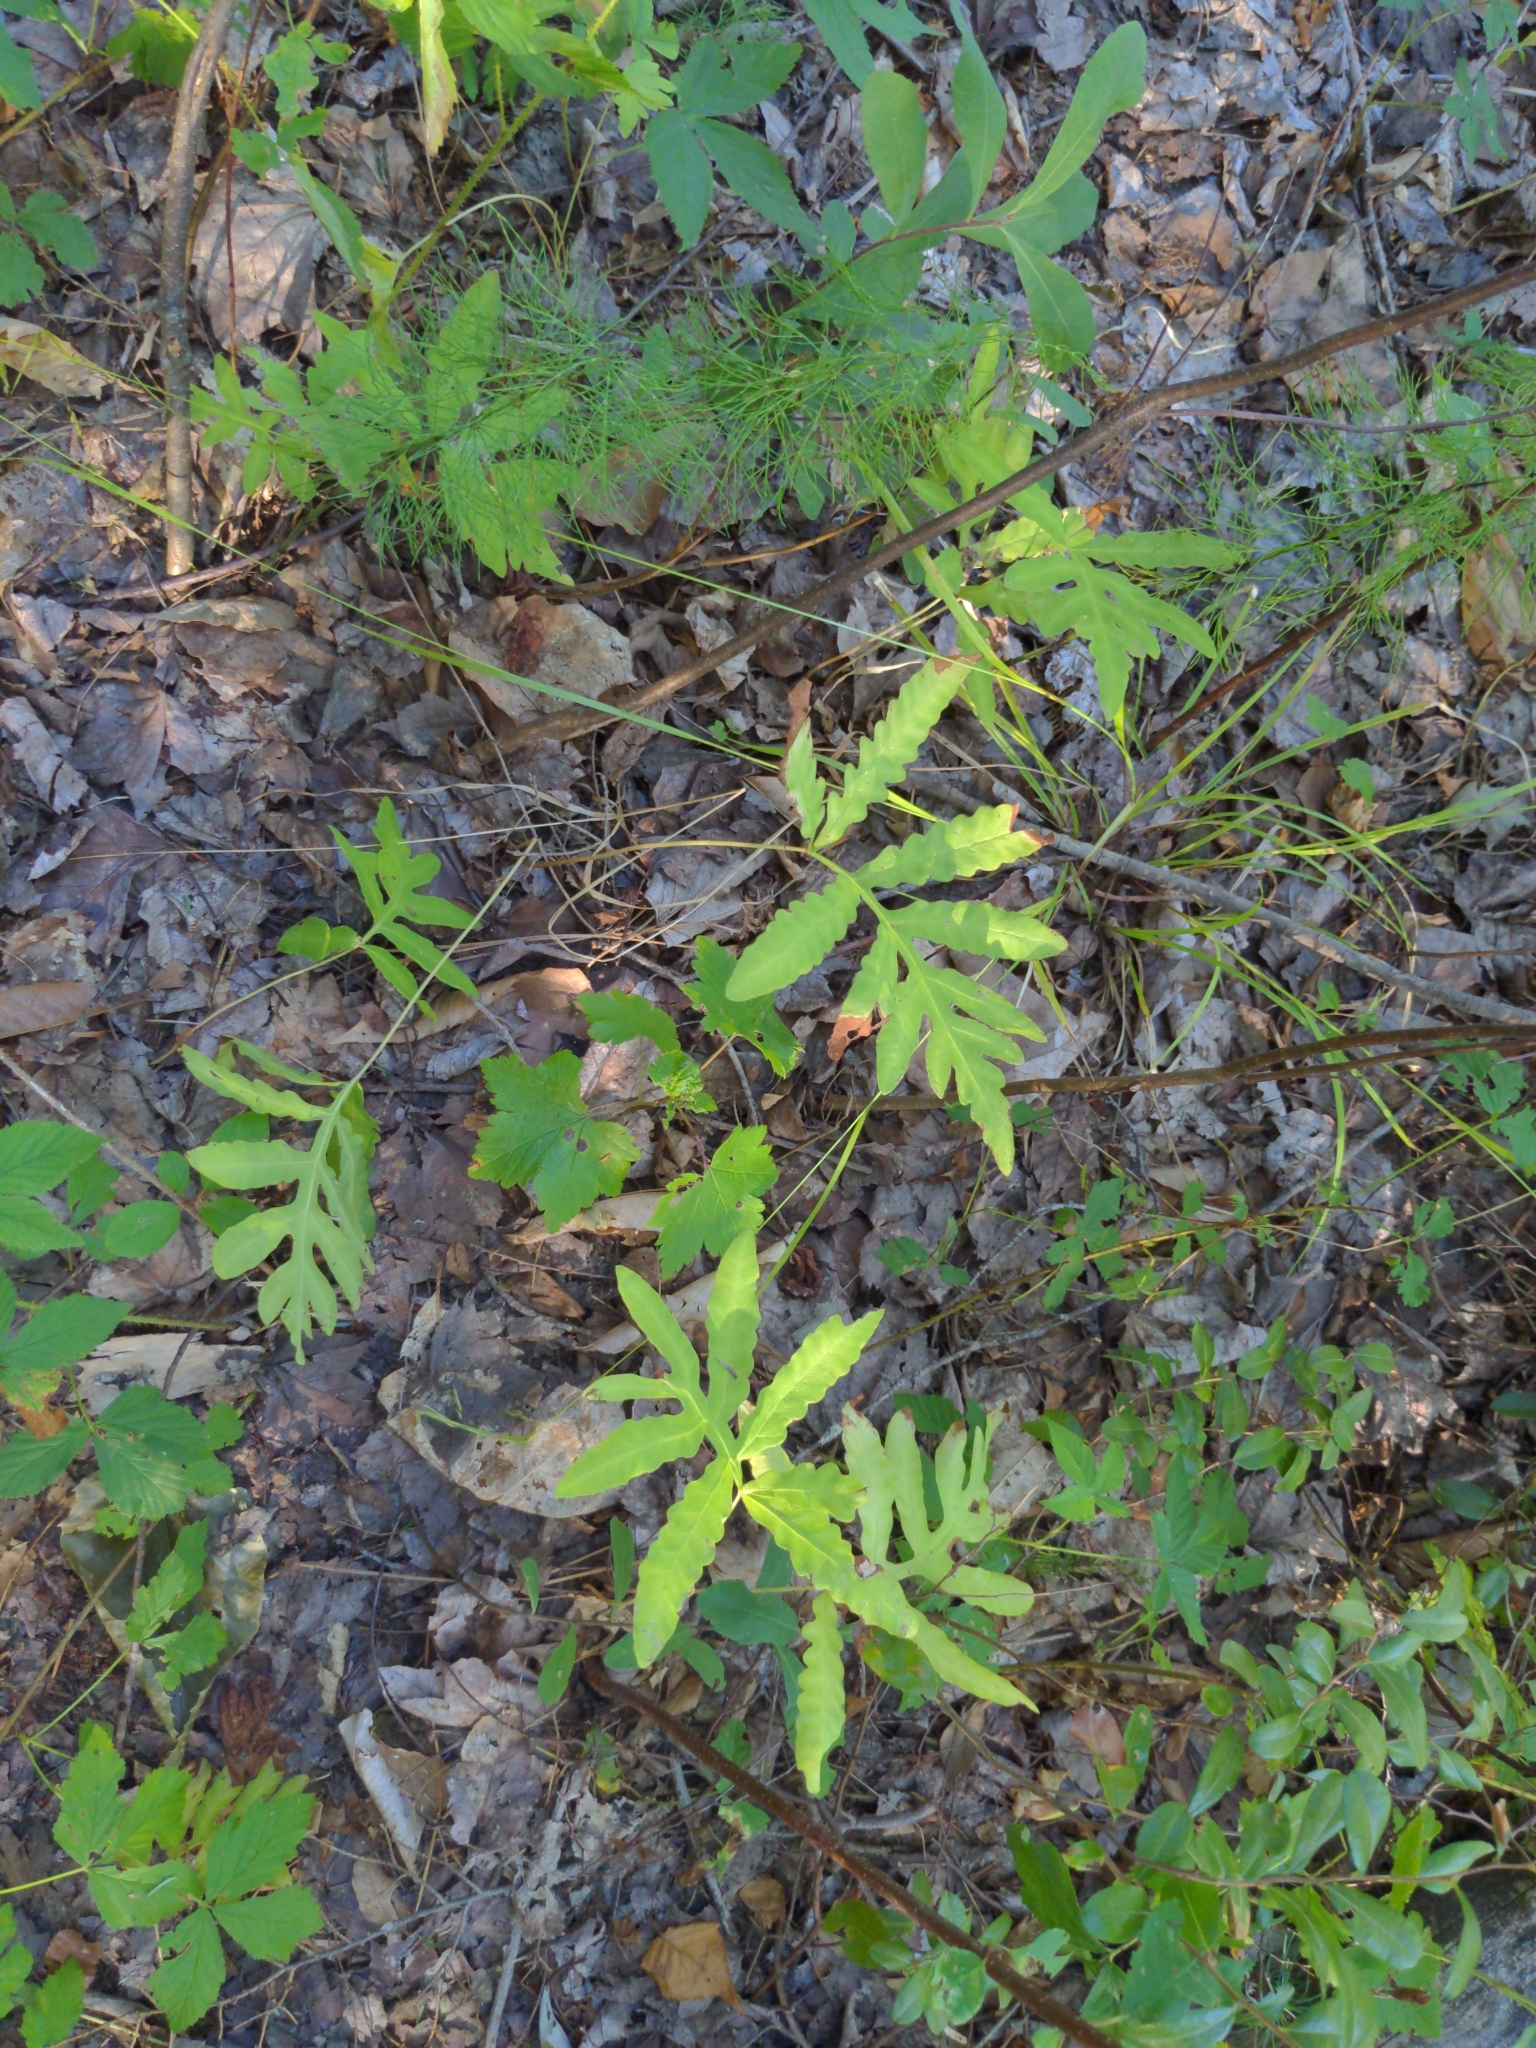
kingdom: Plantae
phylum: Tracheophyta
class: Polypodiopsida
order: Polypodiales
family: Onocleaceae
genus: Onoclea
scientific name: Onoclea sensibilis
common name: Sensitive fern
